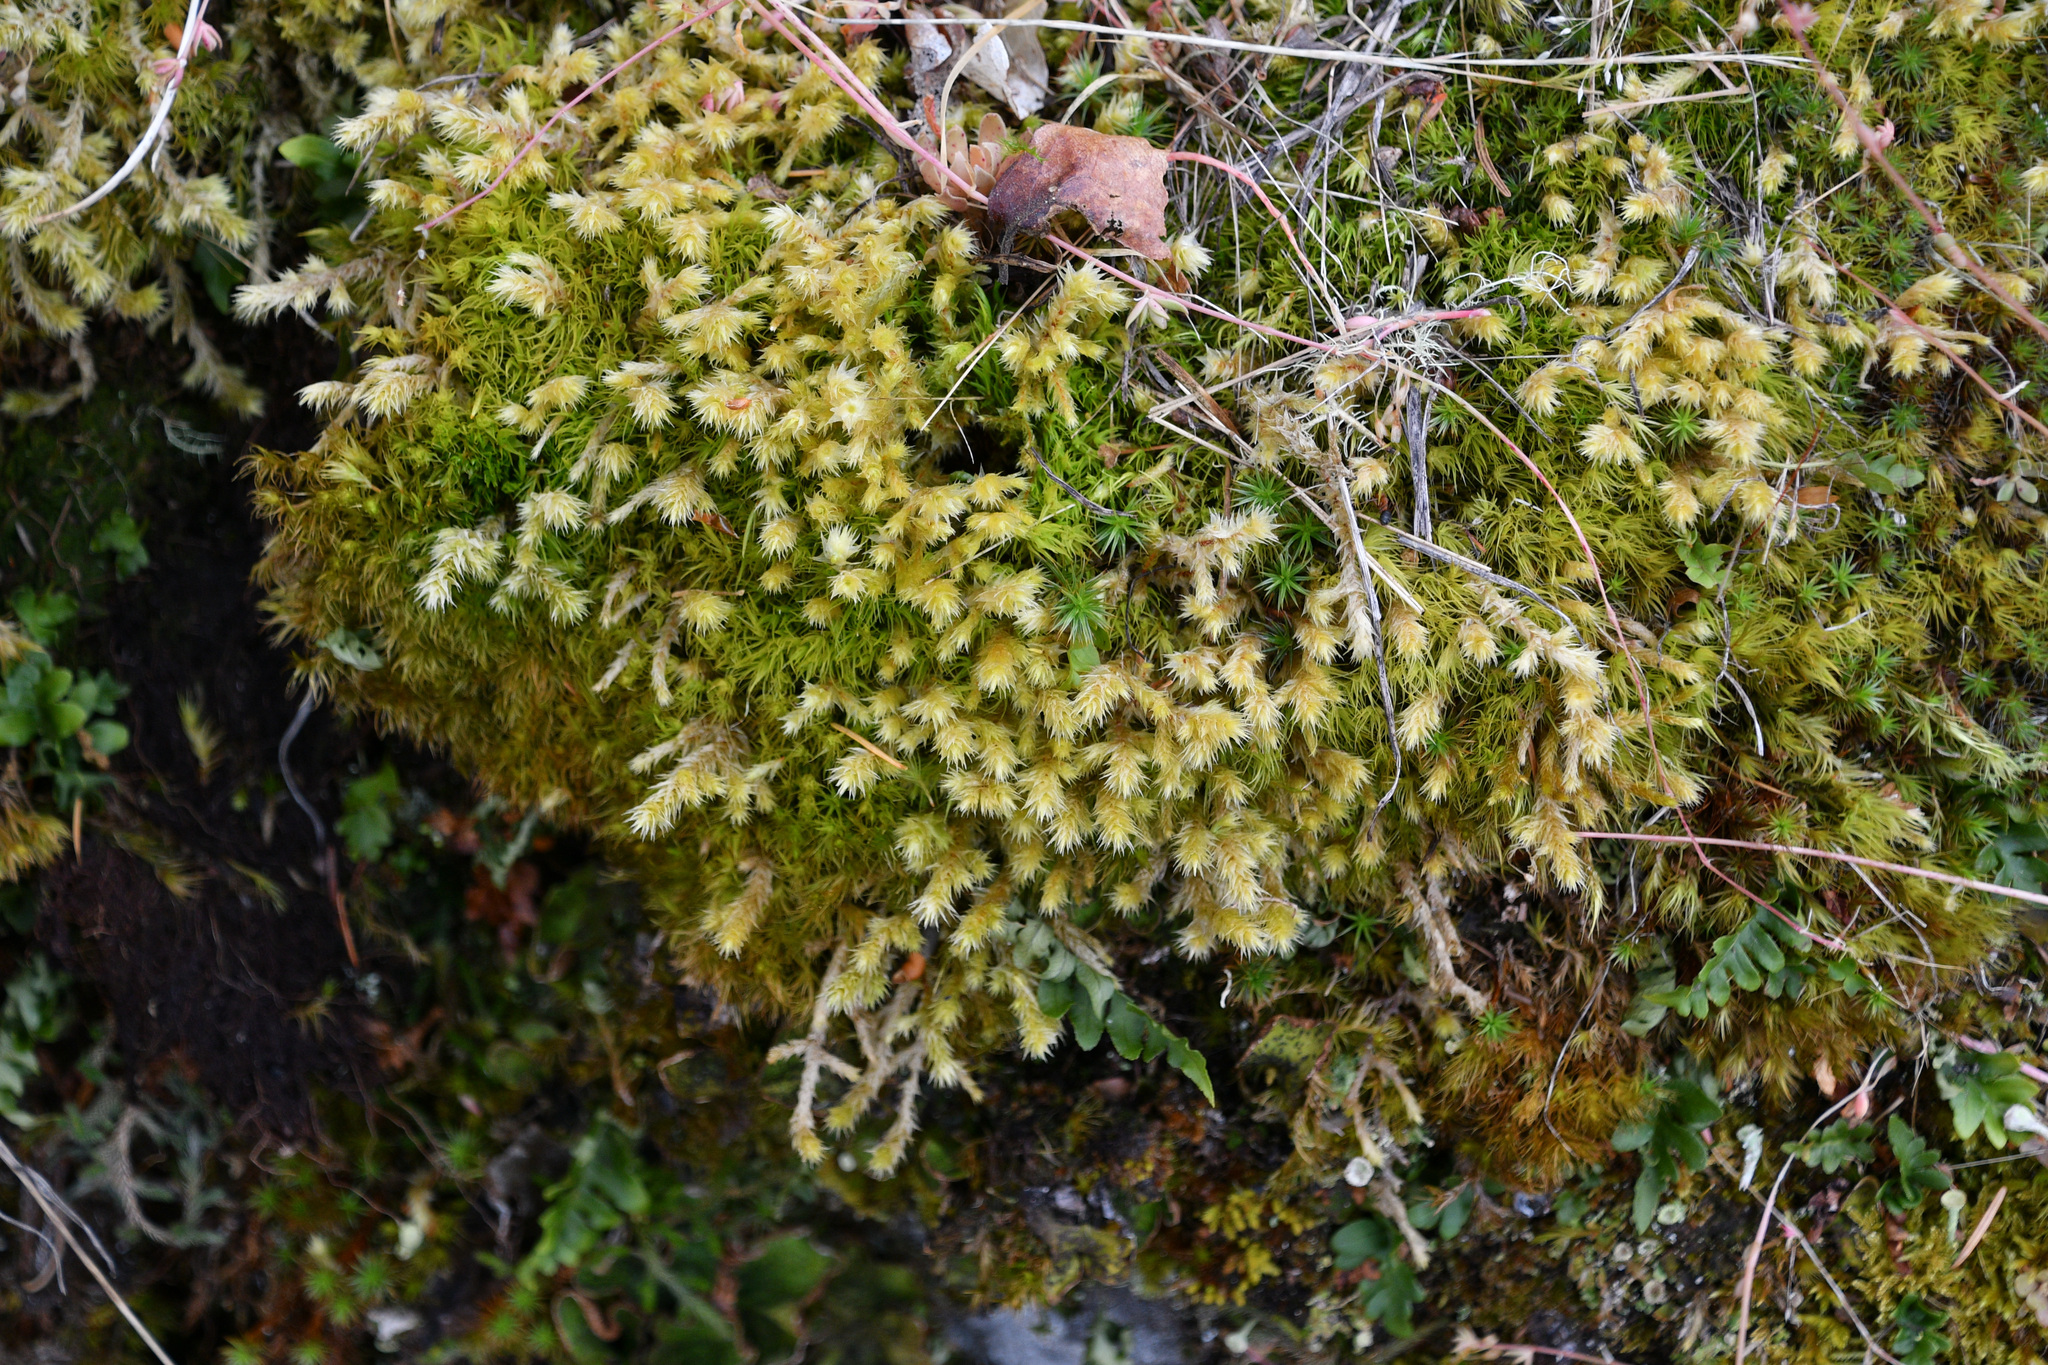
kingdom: Plantae
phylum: Bryophyta
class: Bryopsida
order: Hypnales
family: Hylocomiaceae
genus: Hylocomiadelphus
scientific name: Hylocomiadelphus triquetrus
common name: Rough goose neck moss
